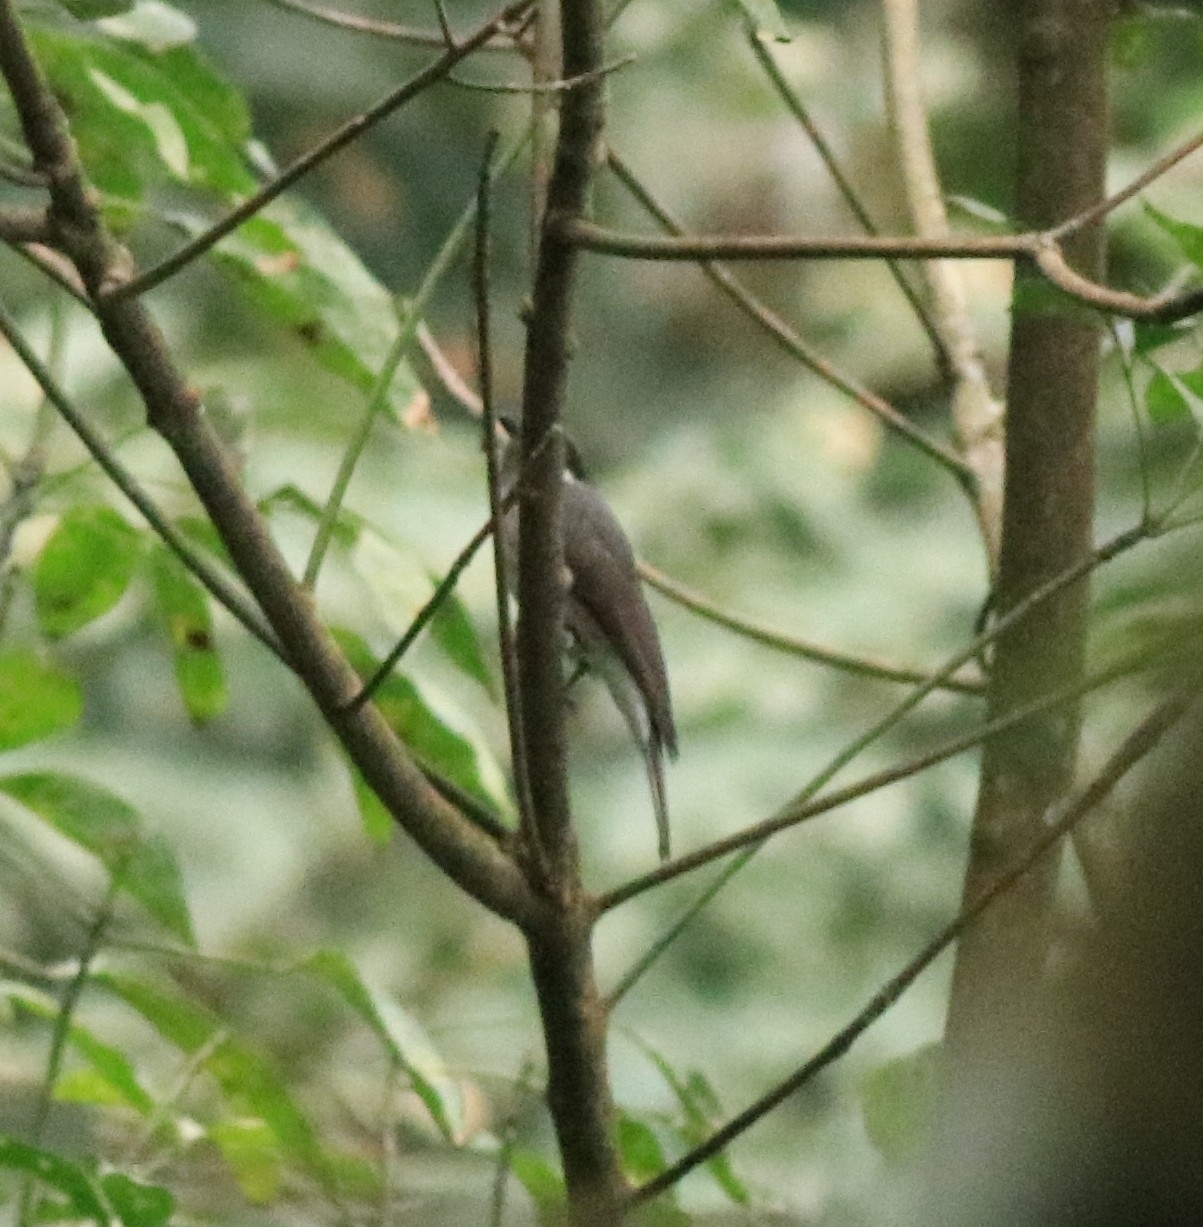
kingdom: Animalia
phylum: Chordata
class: Aves
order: Passeriformes
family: Tephrodornithidae
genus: Tephrodornis
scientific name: Tephrodornis sylvicola
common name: Malabar woodshrike
